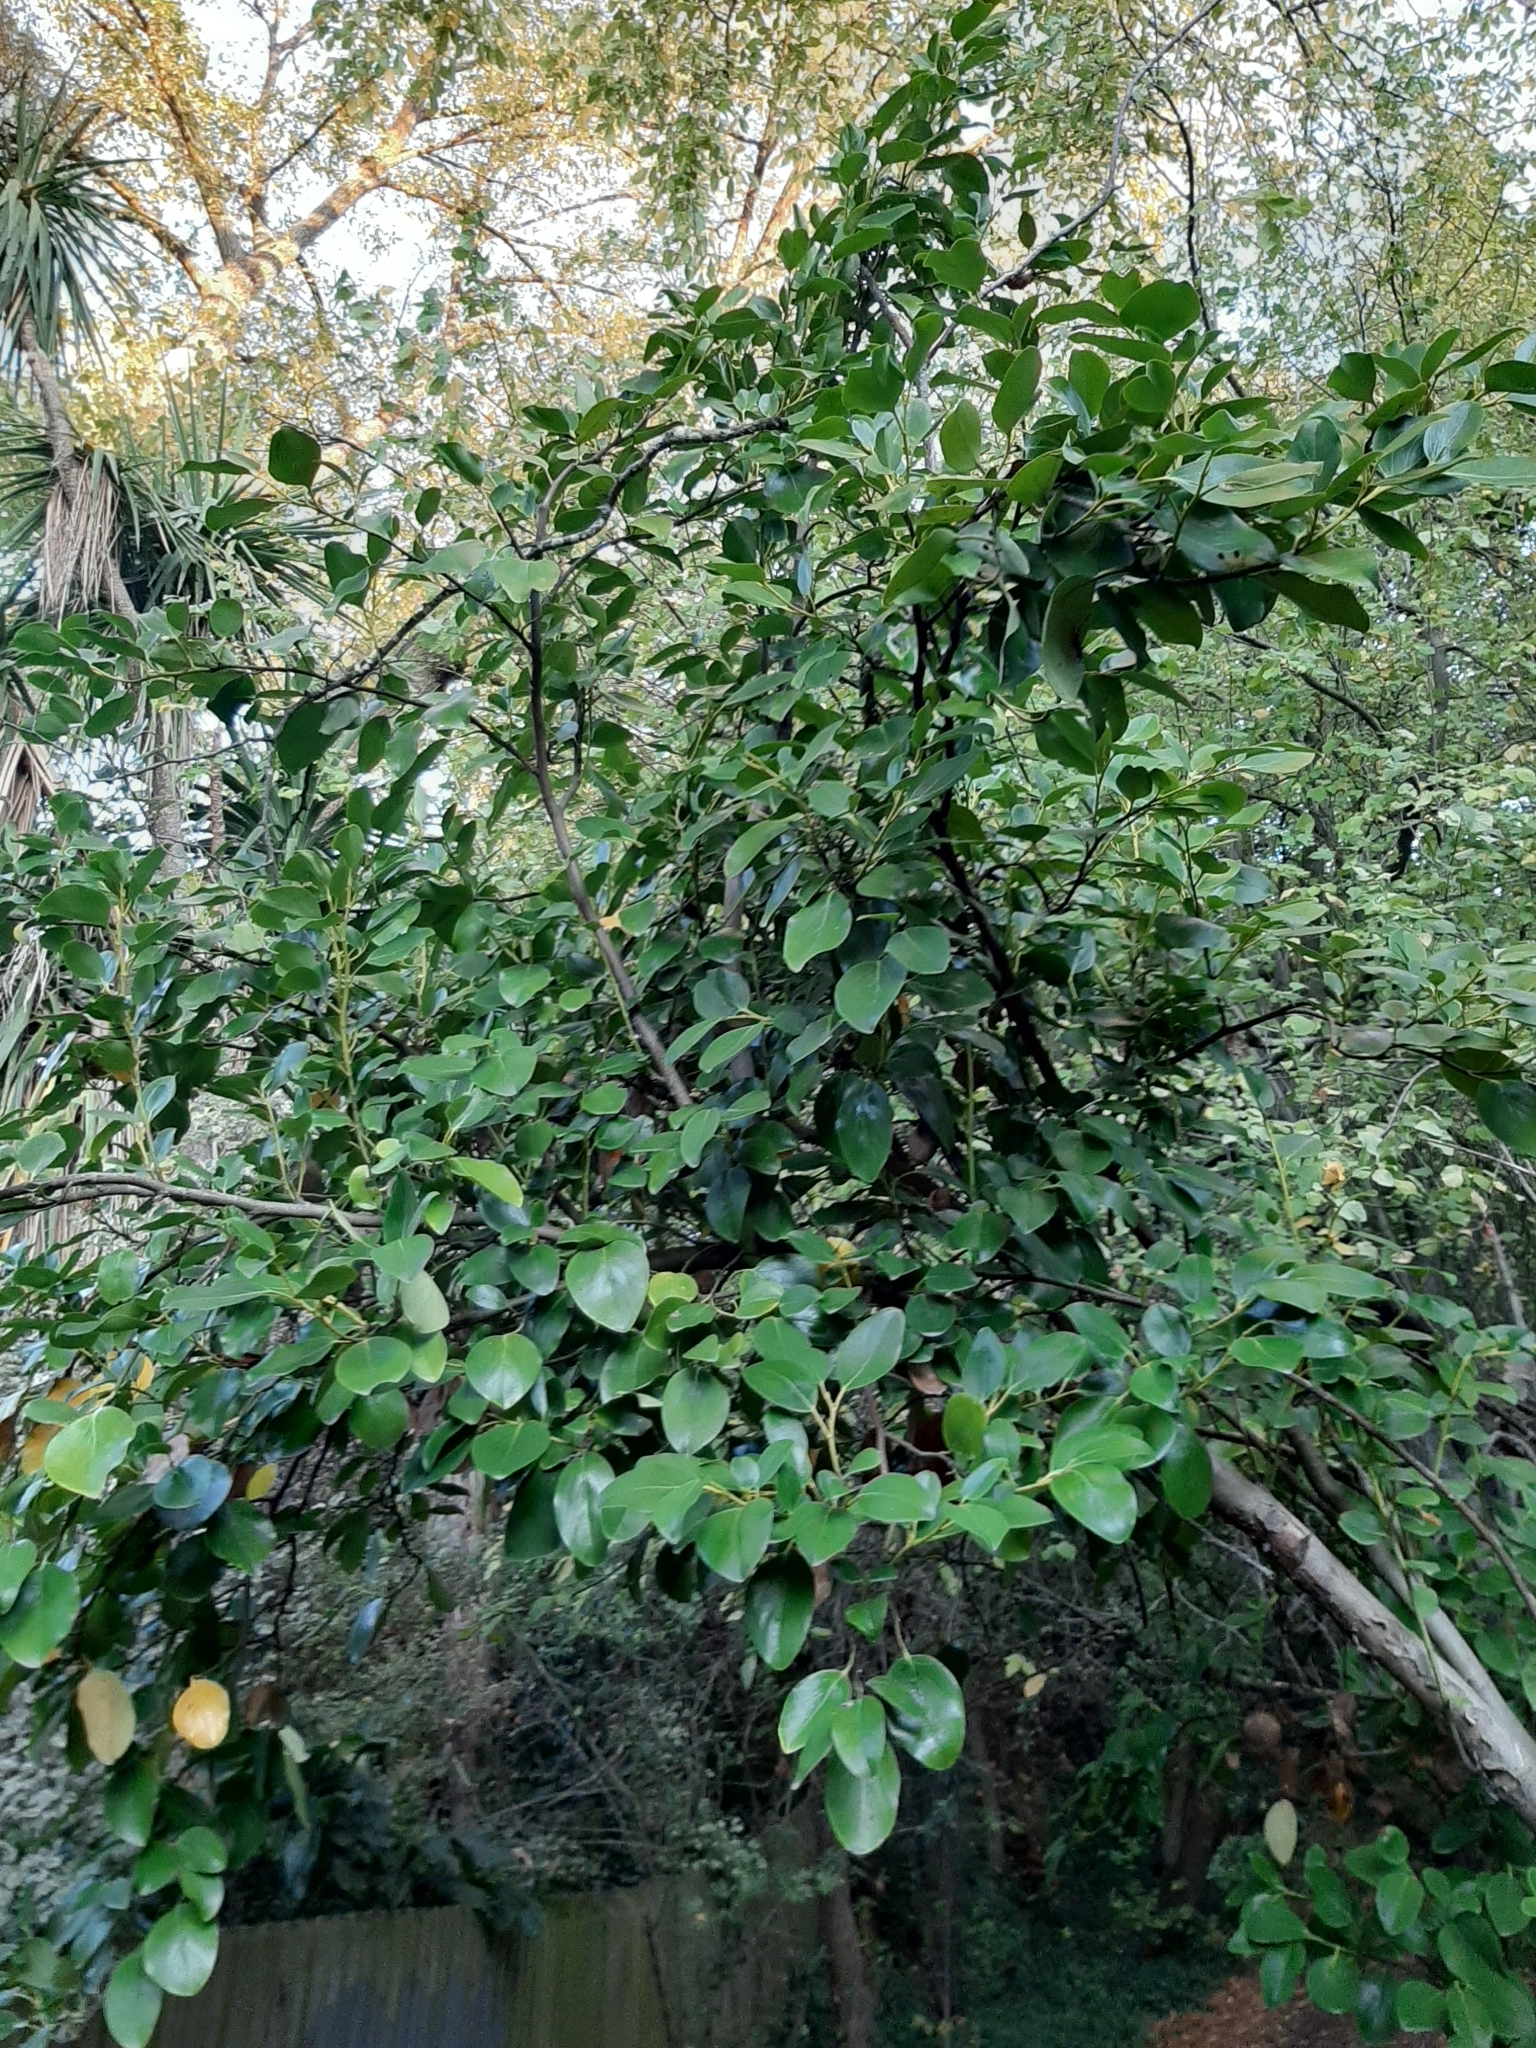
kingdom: Plantae
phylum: Tracheophyta
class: Magnoliopsida
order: Apiales
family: Griseliniaceae
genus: Griselinia
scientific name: Griselinia littoralis
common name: New zealand broadleaf
